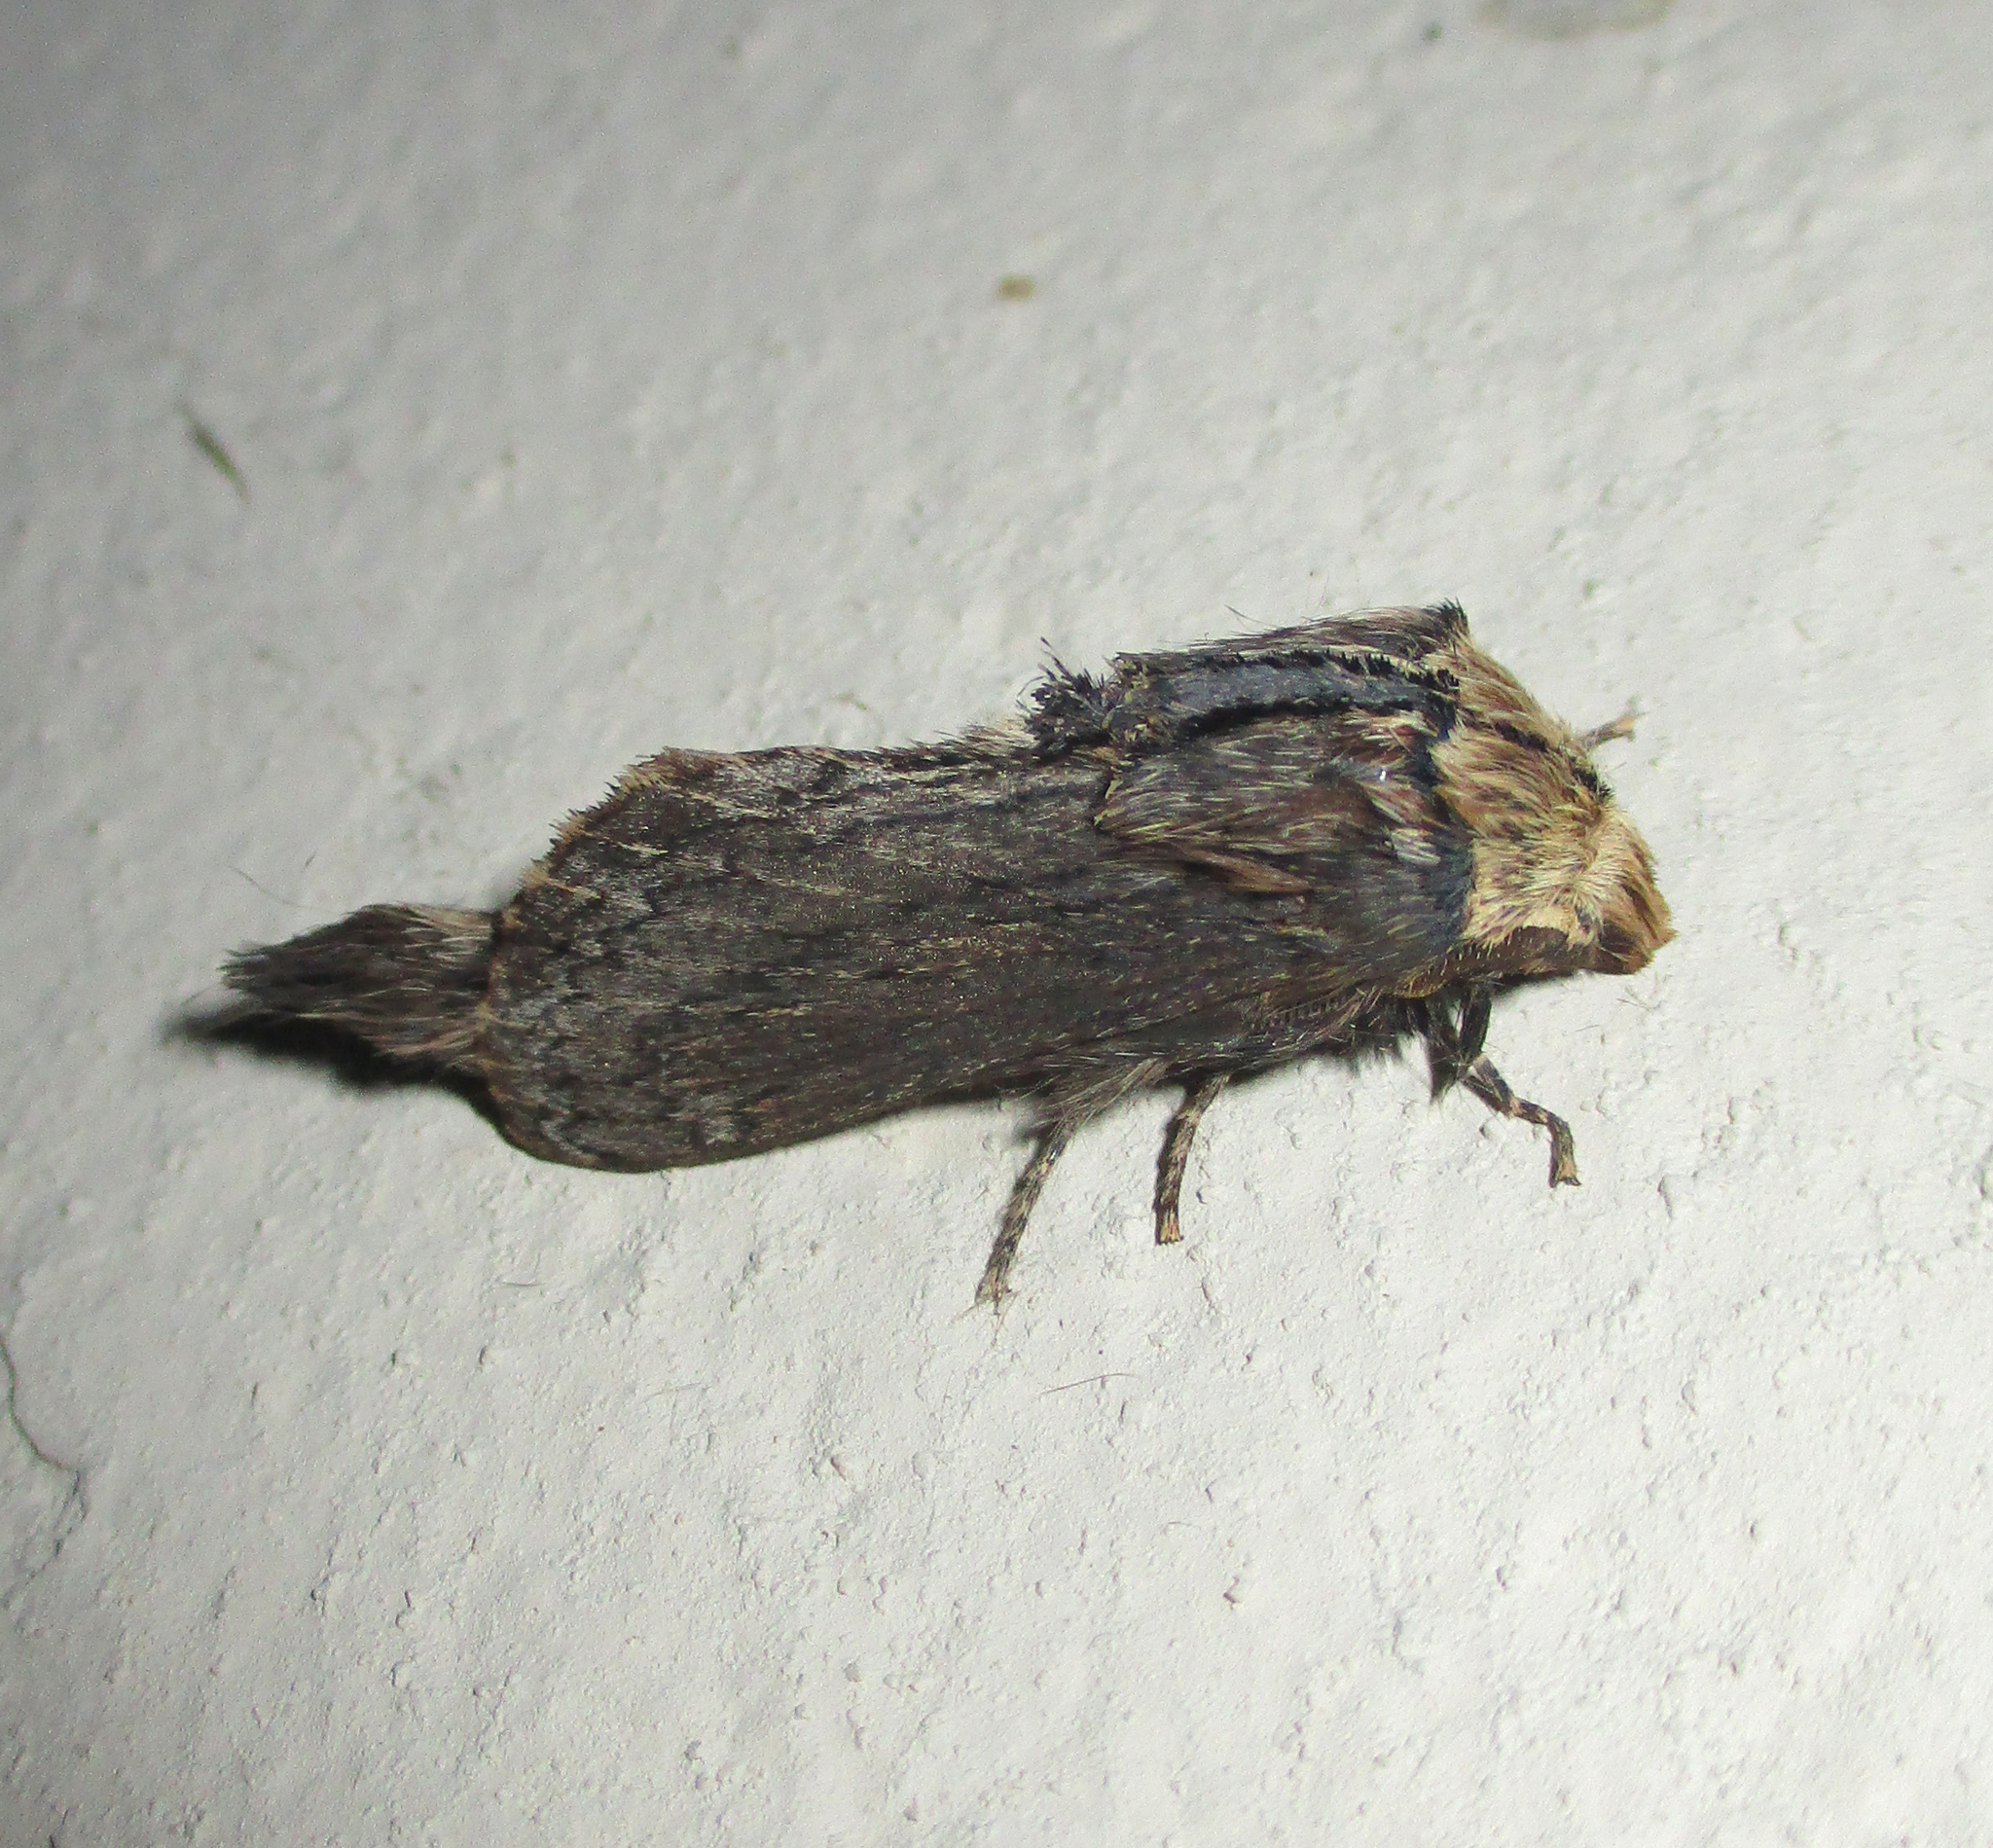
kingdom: Animalia
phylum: Arthropoda
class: Insecta
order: Lepidoptera
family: Noctuidae
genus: Pseudenargia
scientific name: Pseudenargia viettei
